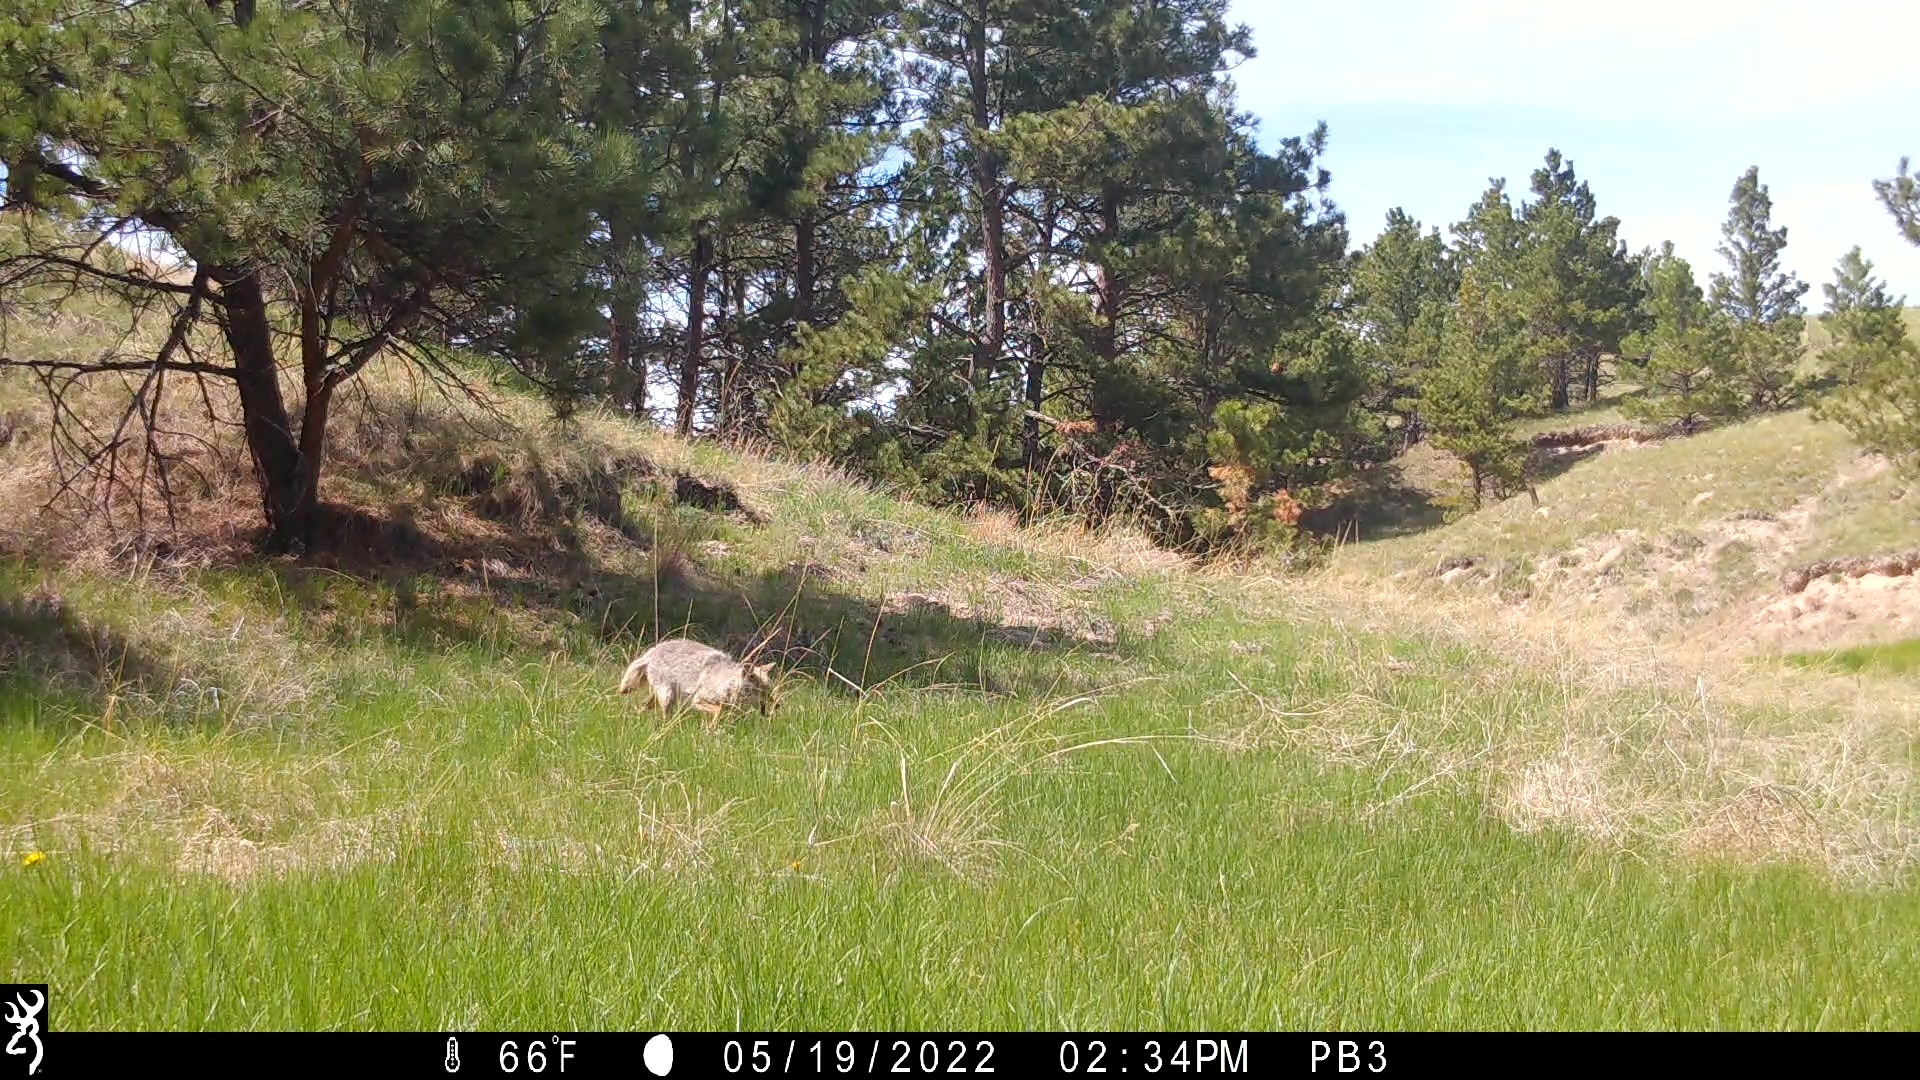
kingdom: Animalia
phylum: Chordata
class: Mammalia
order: Carnivora
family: Canidae
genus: Canis
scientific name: Canis latrans
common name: Coyote
